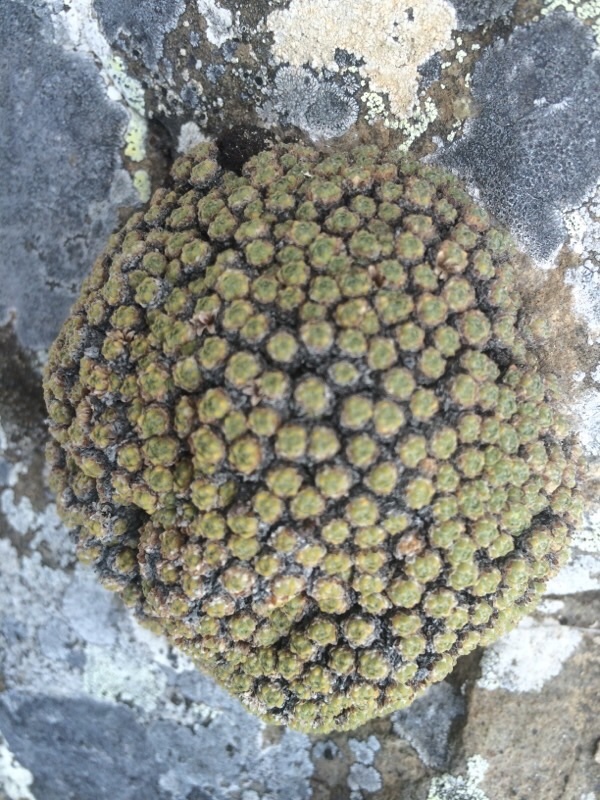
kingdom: Plantae
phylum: Tracheophyta
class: Magnoliopsida
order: Ericales
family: Primulaceae
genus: Androsace
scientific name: Androsace helvetica
